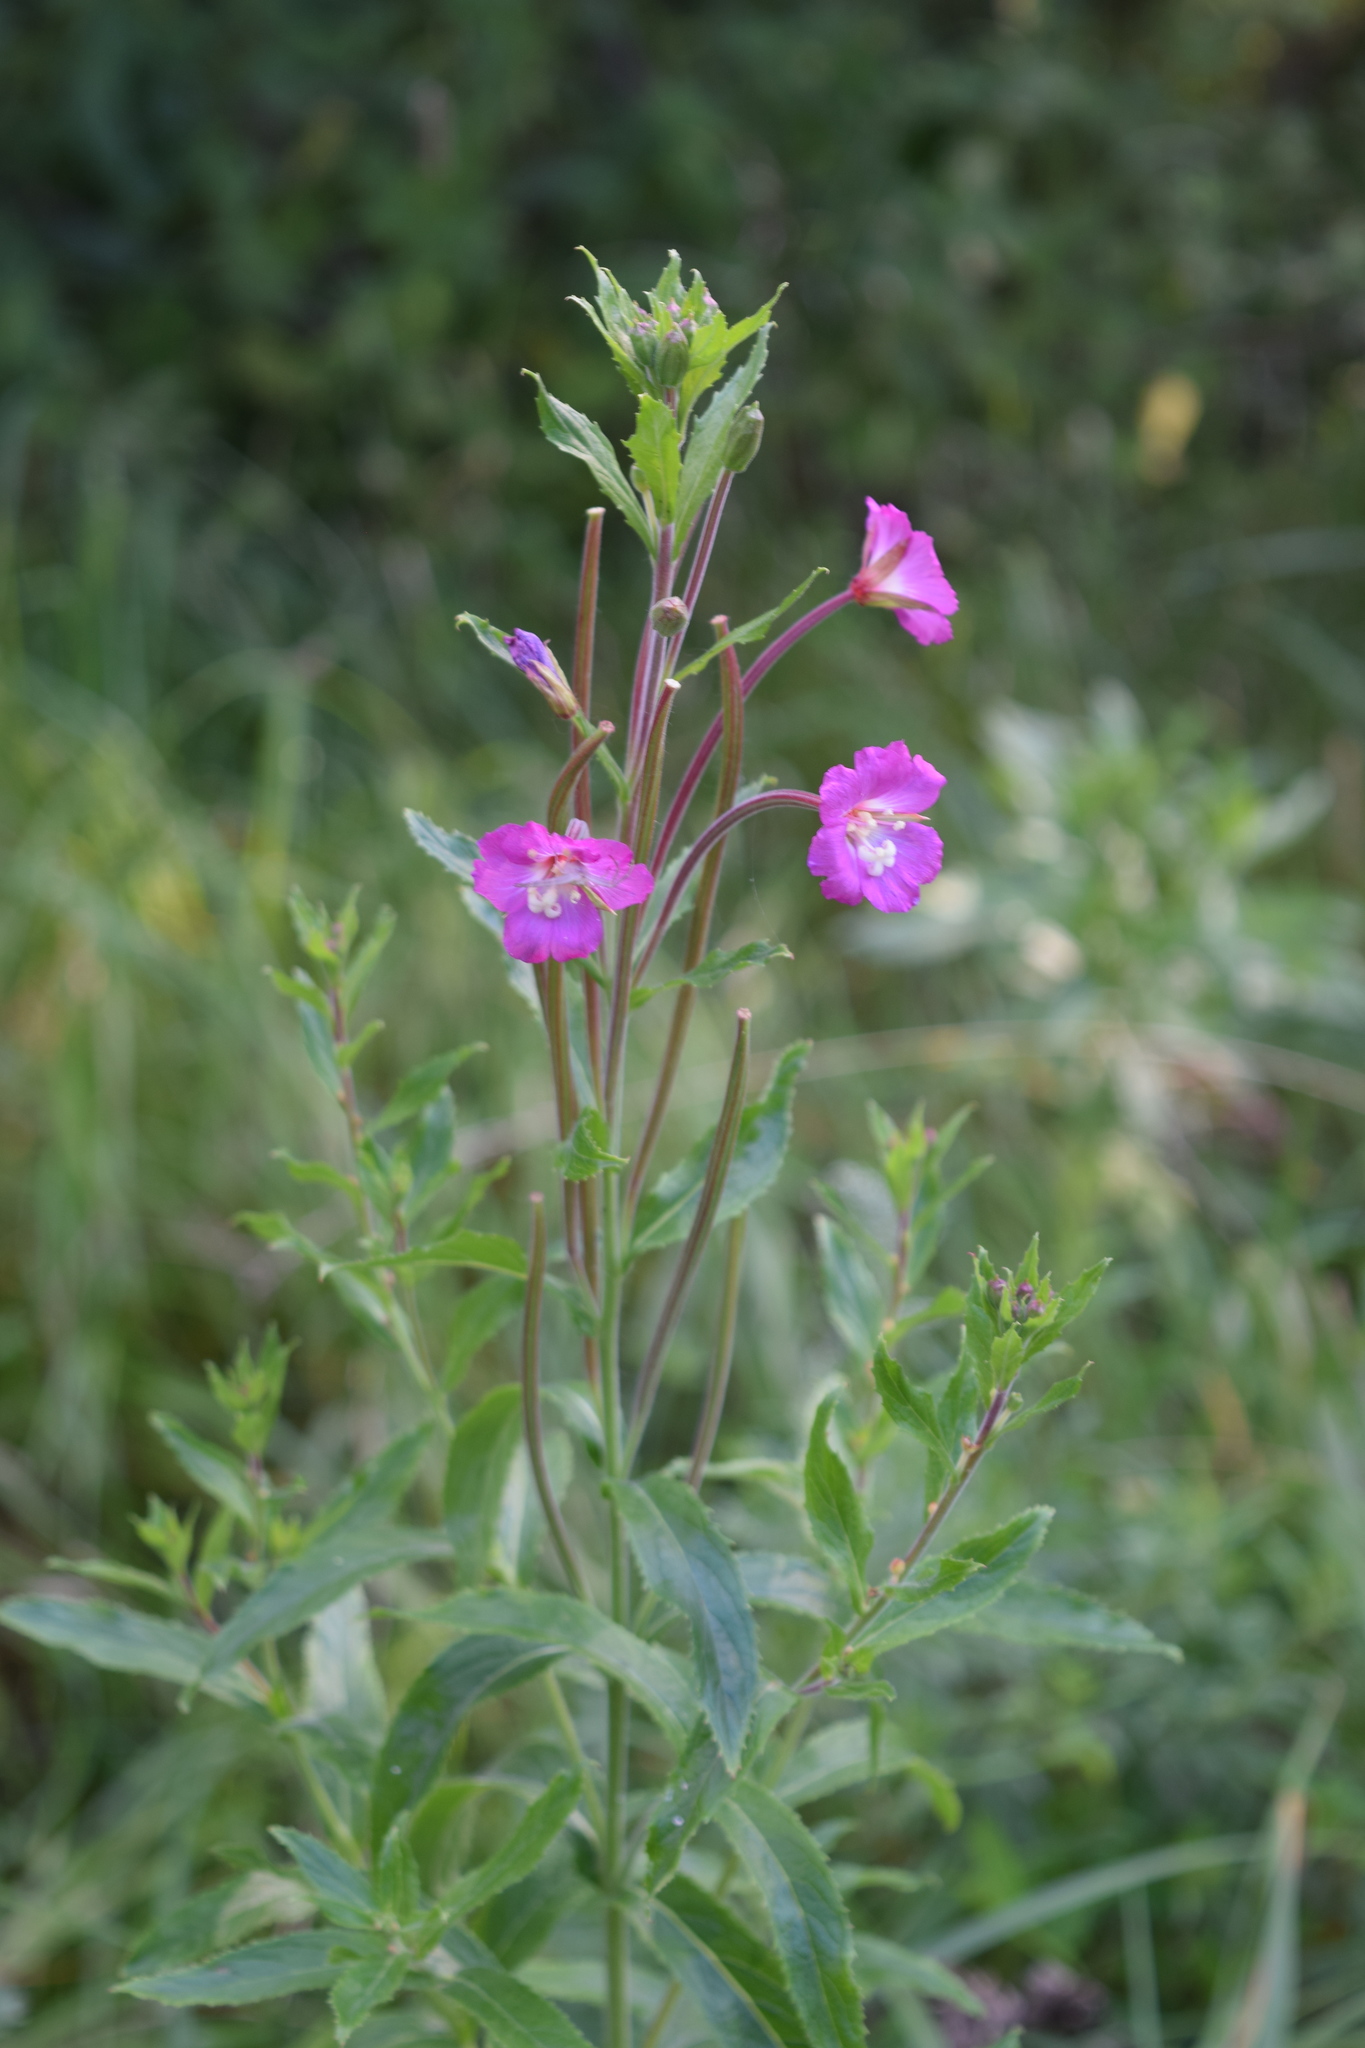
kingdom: Plantae
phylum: Tracheophyta
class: Magnoliopsida
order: Myrtales
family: Onagraceae
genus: Epilobium
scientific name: Epilobium hirsutum
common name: Great willowherb
